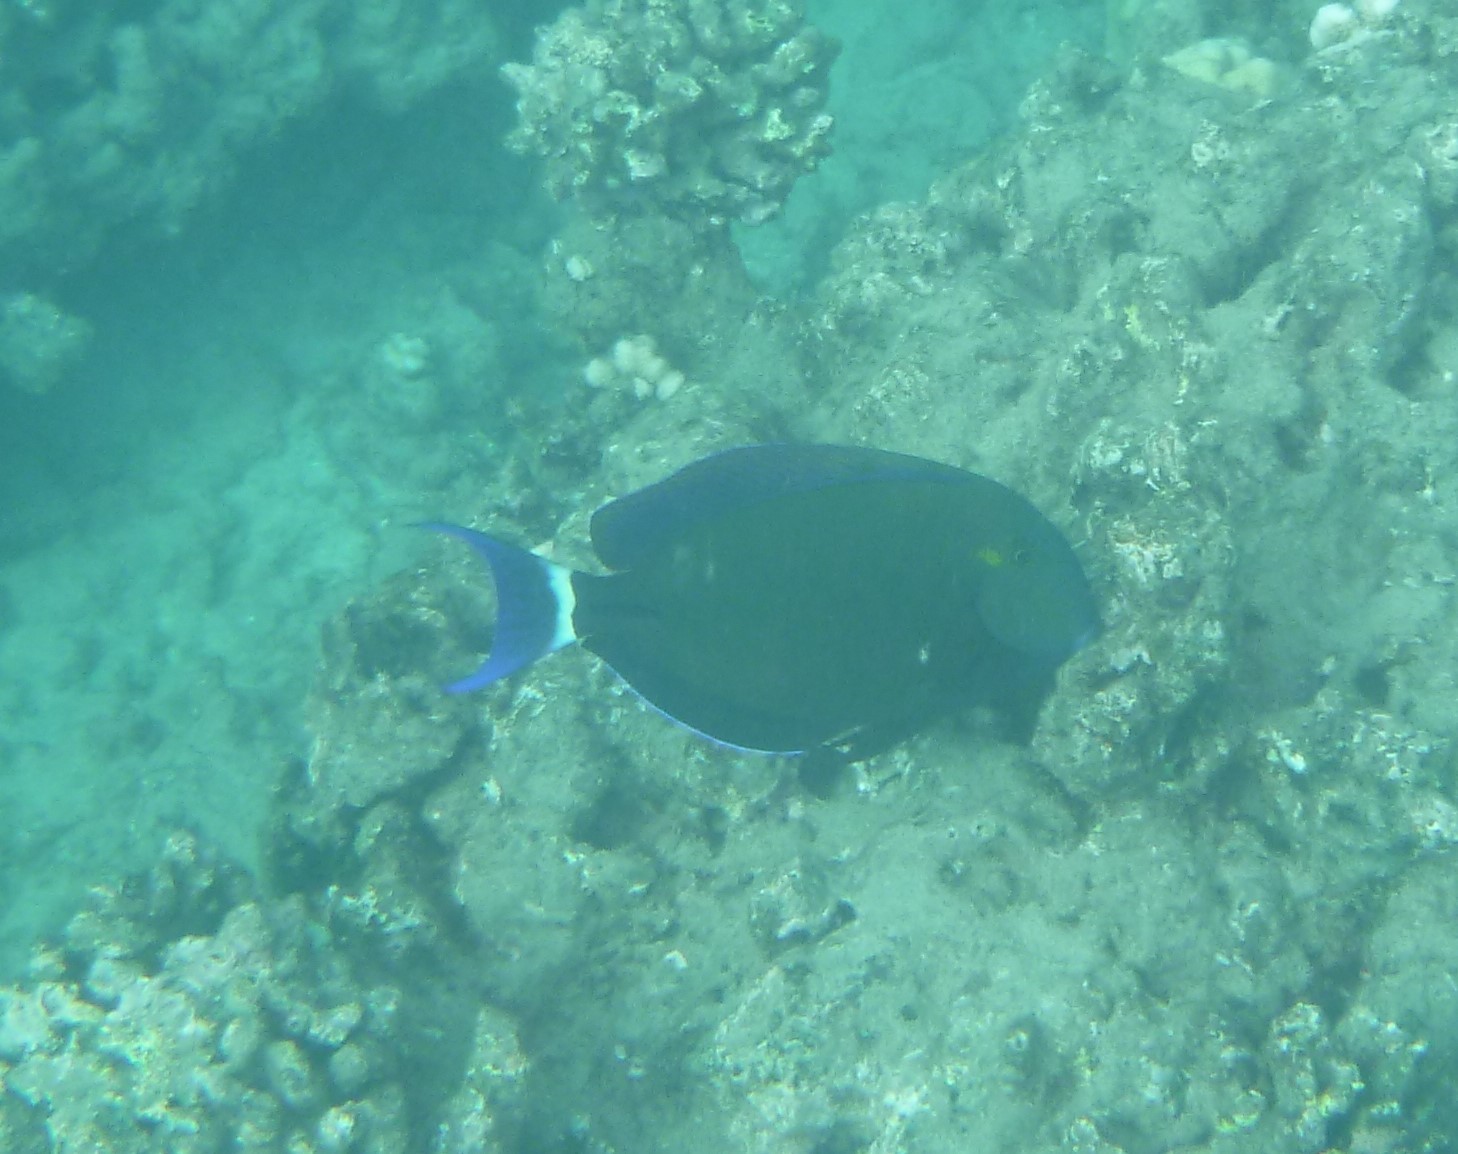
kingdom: Animalia
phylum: Chordata
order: Perciformes
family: Acanthuridae
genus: Acanthurus
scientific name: Acanthurus blochii
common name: Blue-banded pualu
